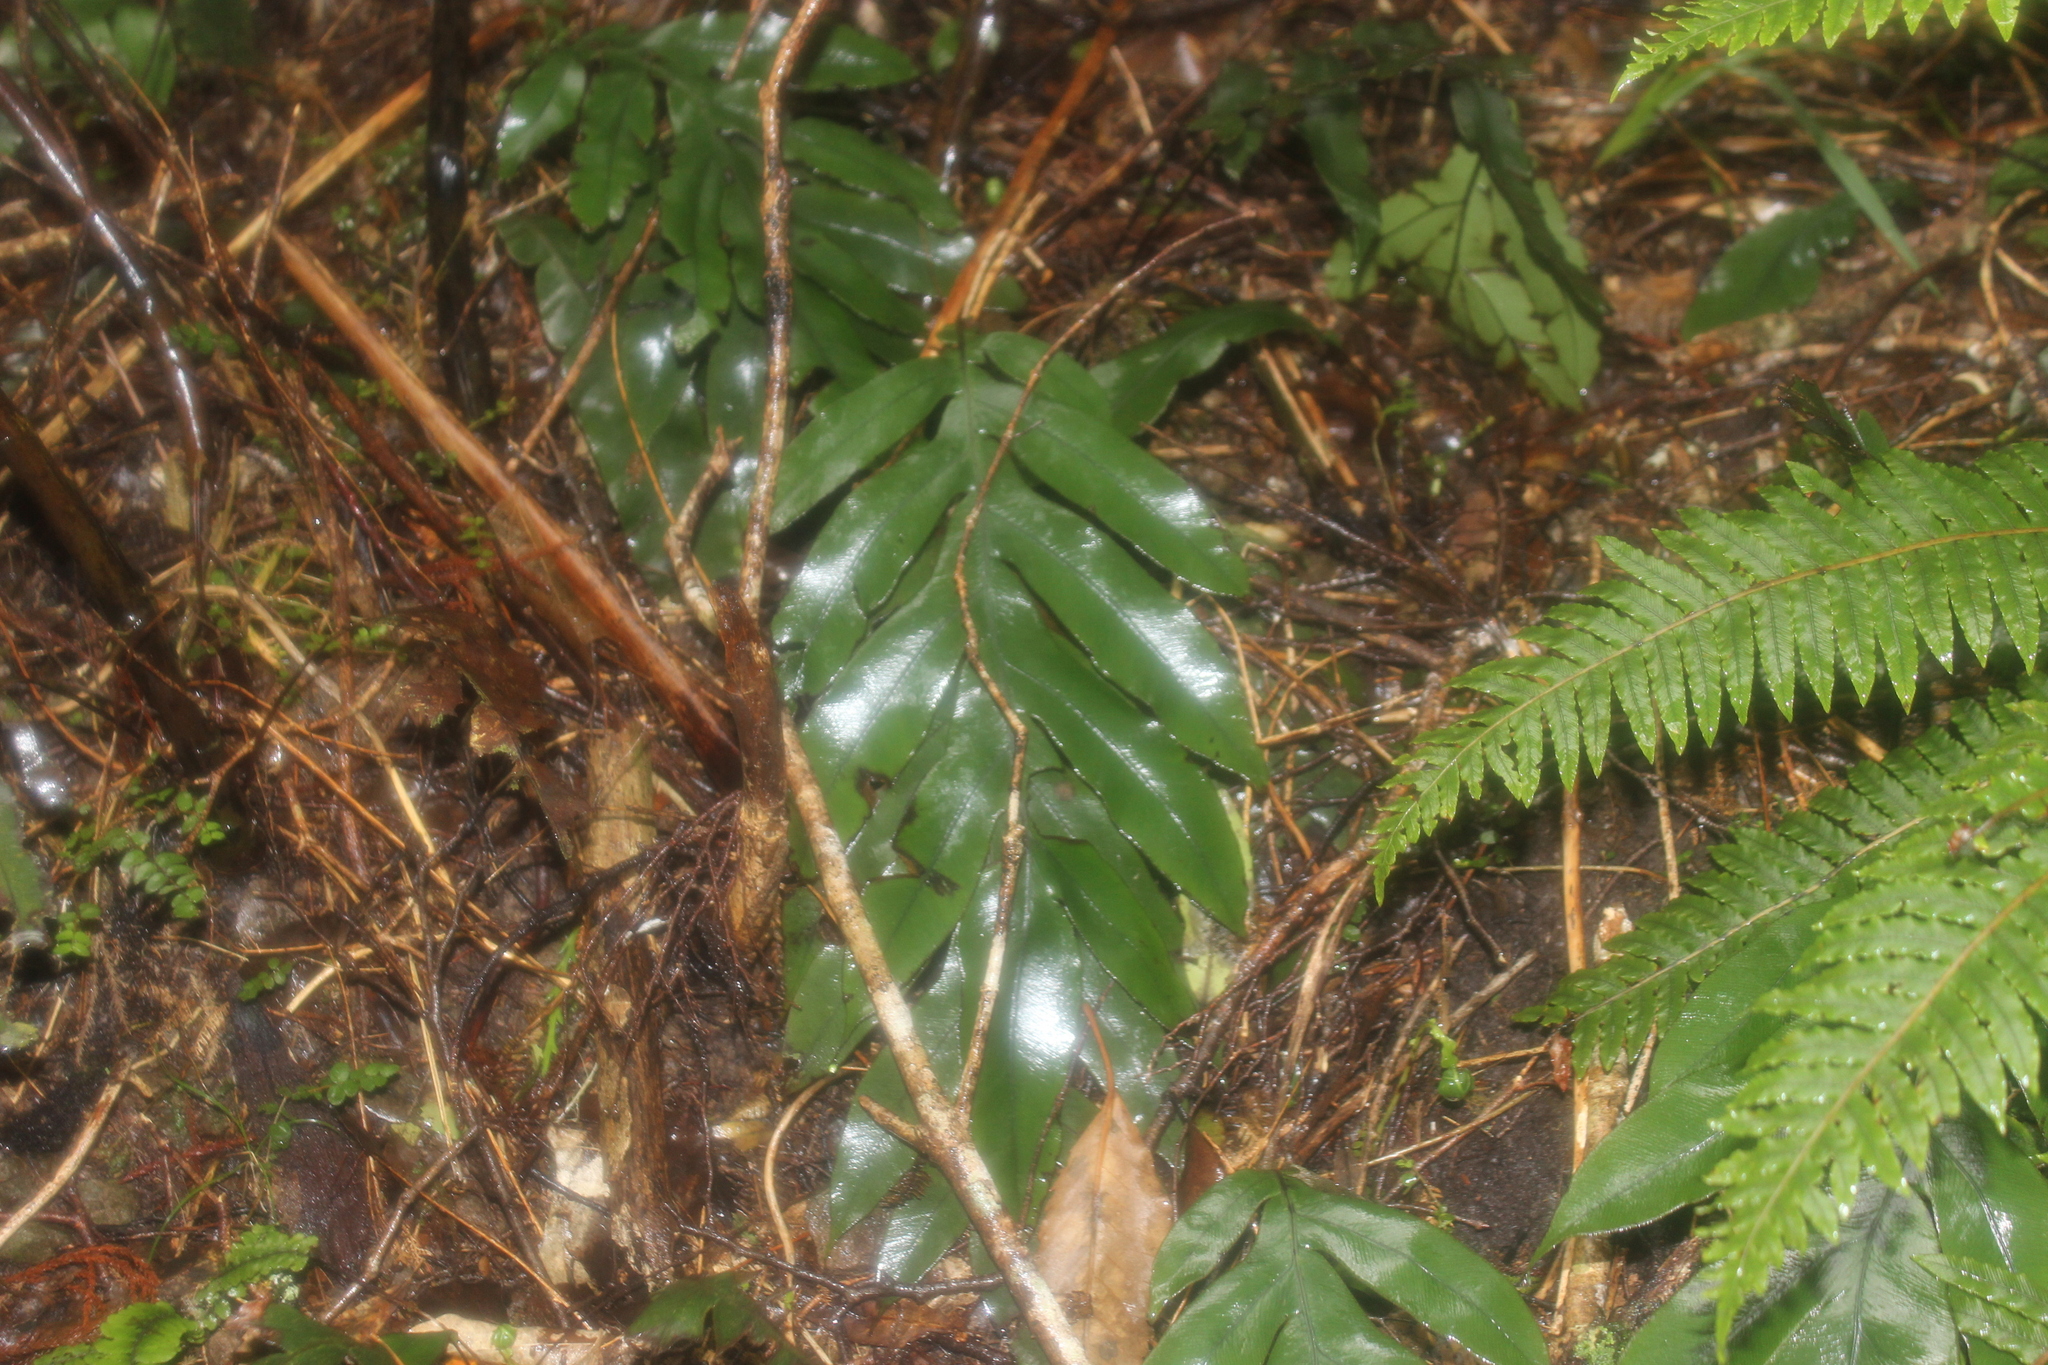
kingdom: Plantae
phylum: Tracheophyta
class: Polypodiopsida
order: Polypodiales
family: Blechnaceae
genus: Austroblechnum
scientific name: Austroblechnum colensoi
